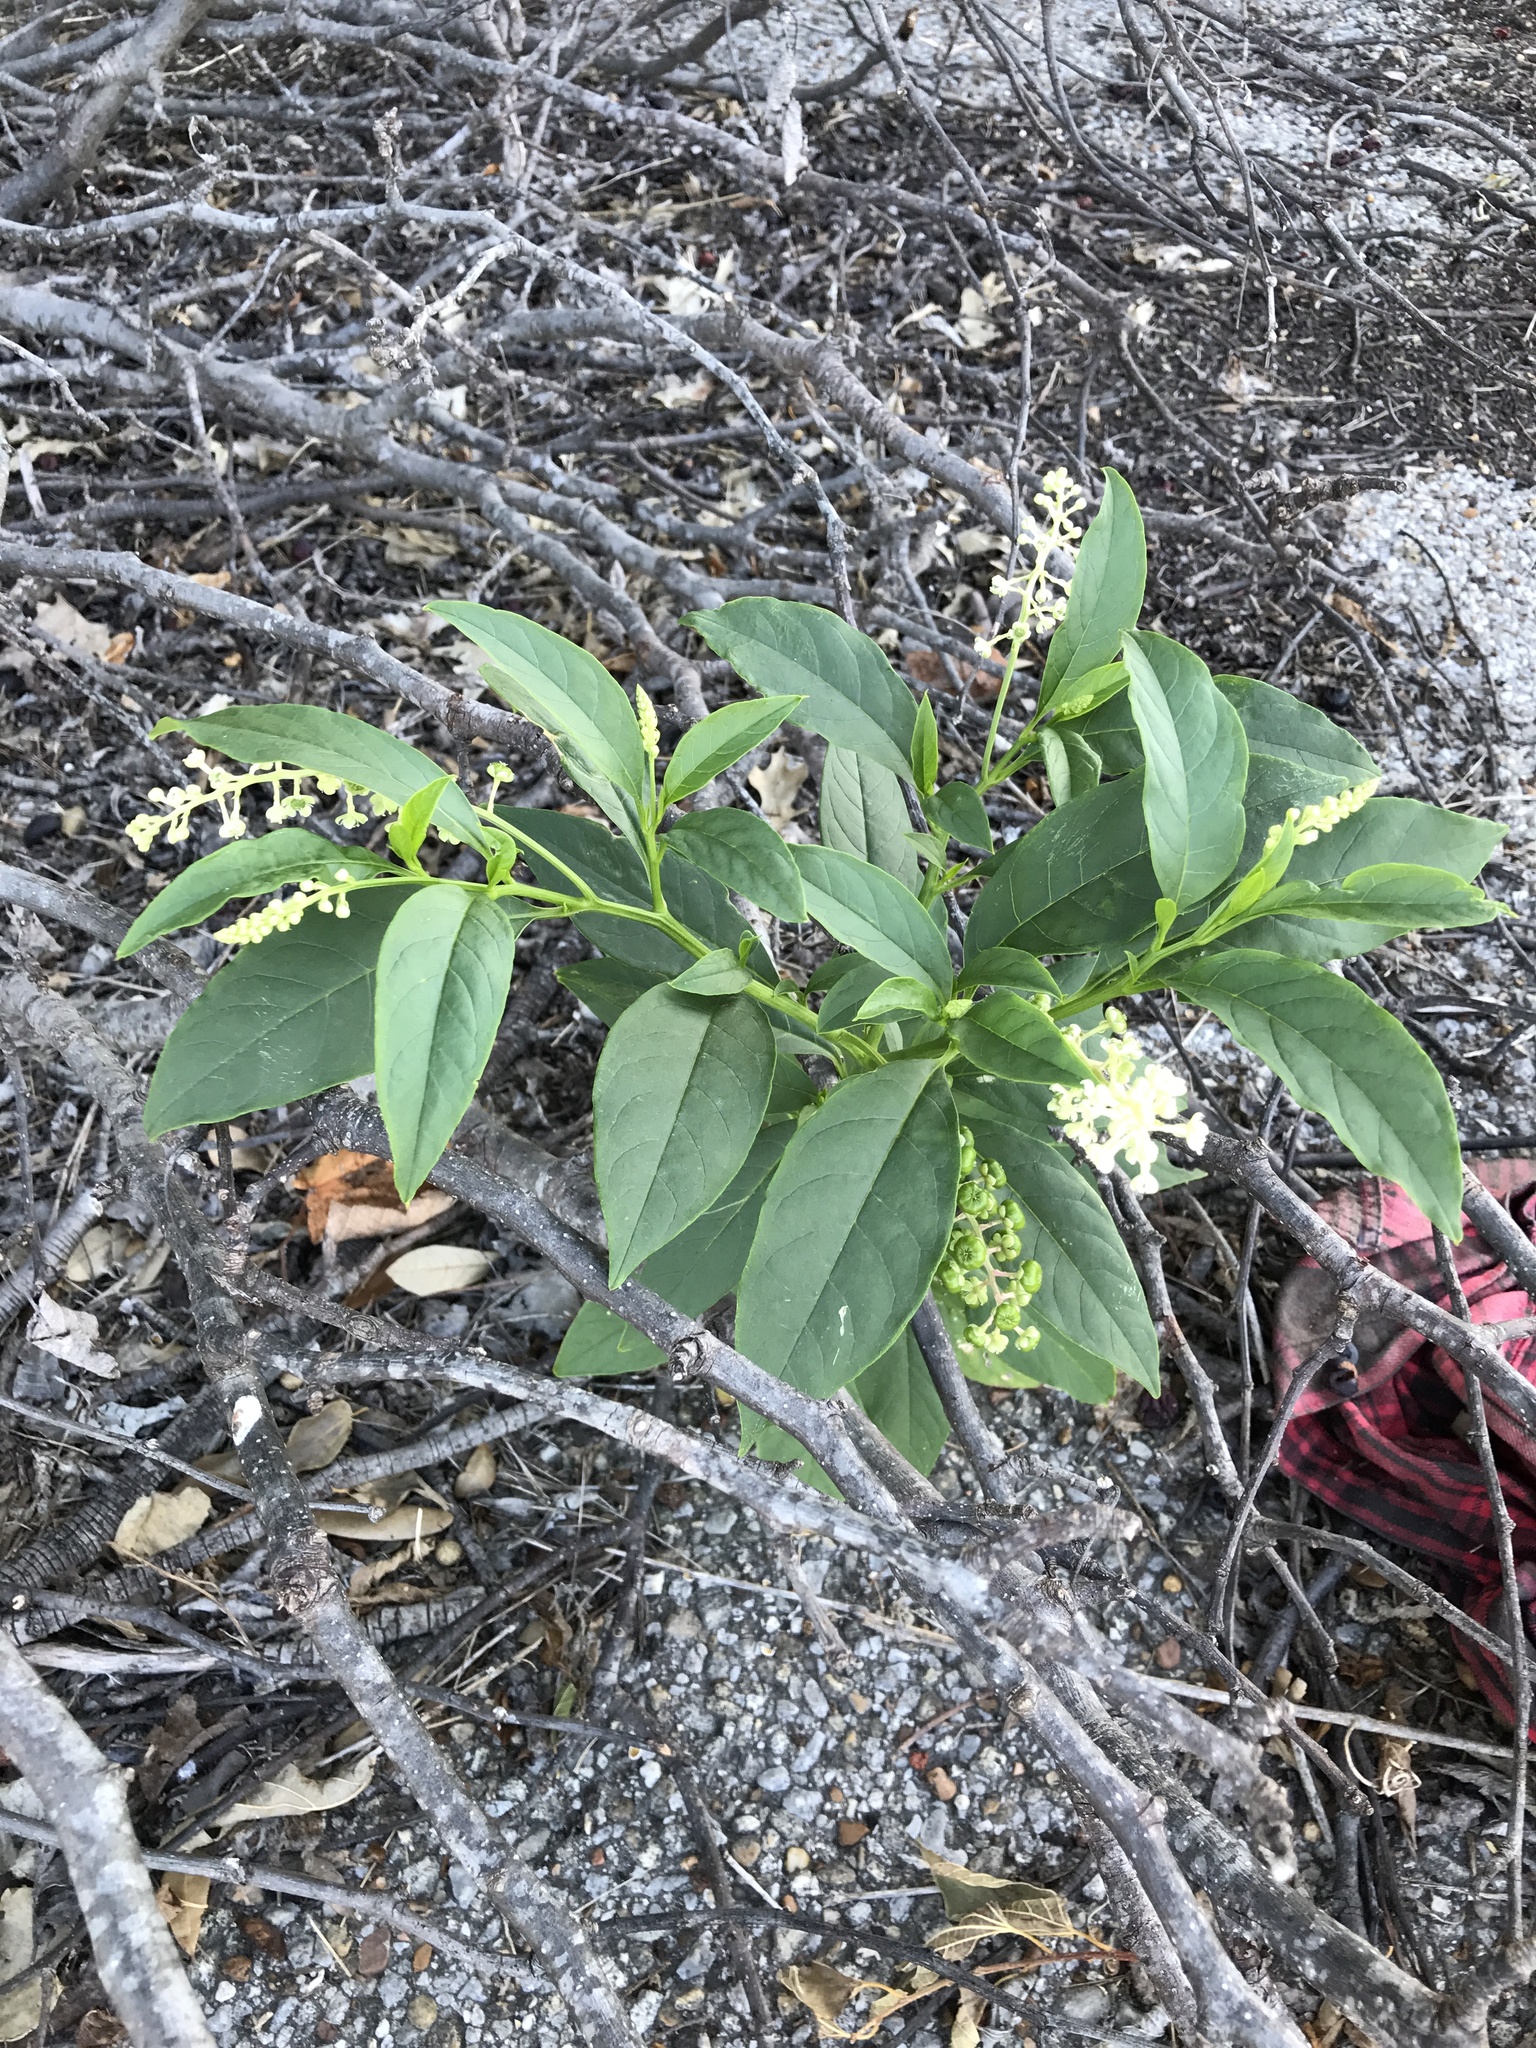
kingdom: Plantae
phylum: Tracheophyta
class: Magnoliopsida
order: Caryophyllales
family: Phytolaccaceae
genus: Phytolacca
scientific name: Phytolacca americana
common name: American pokeweed
